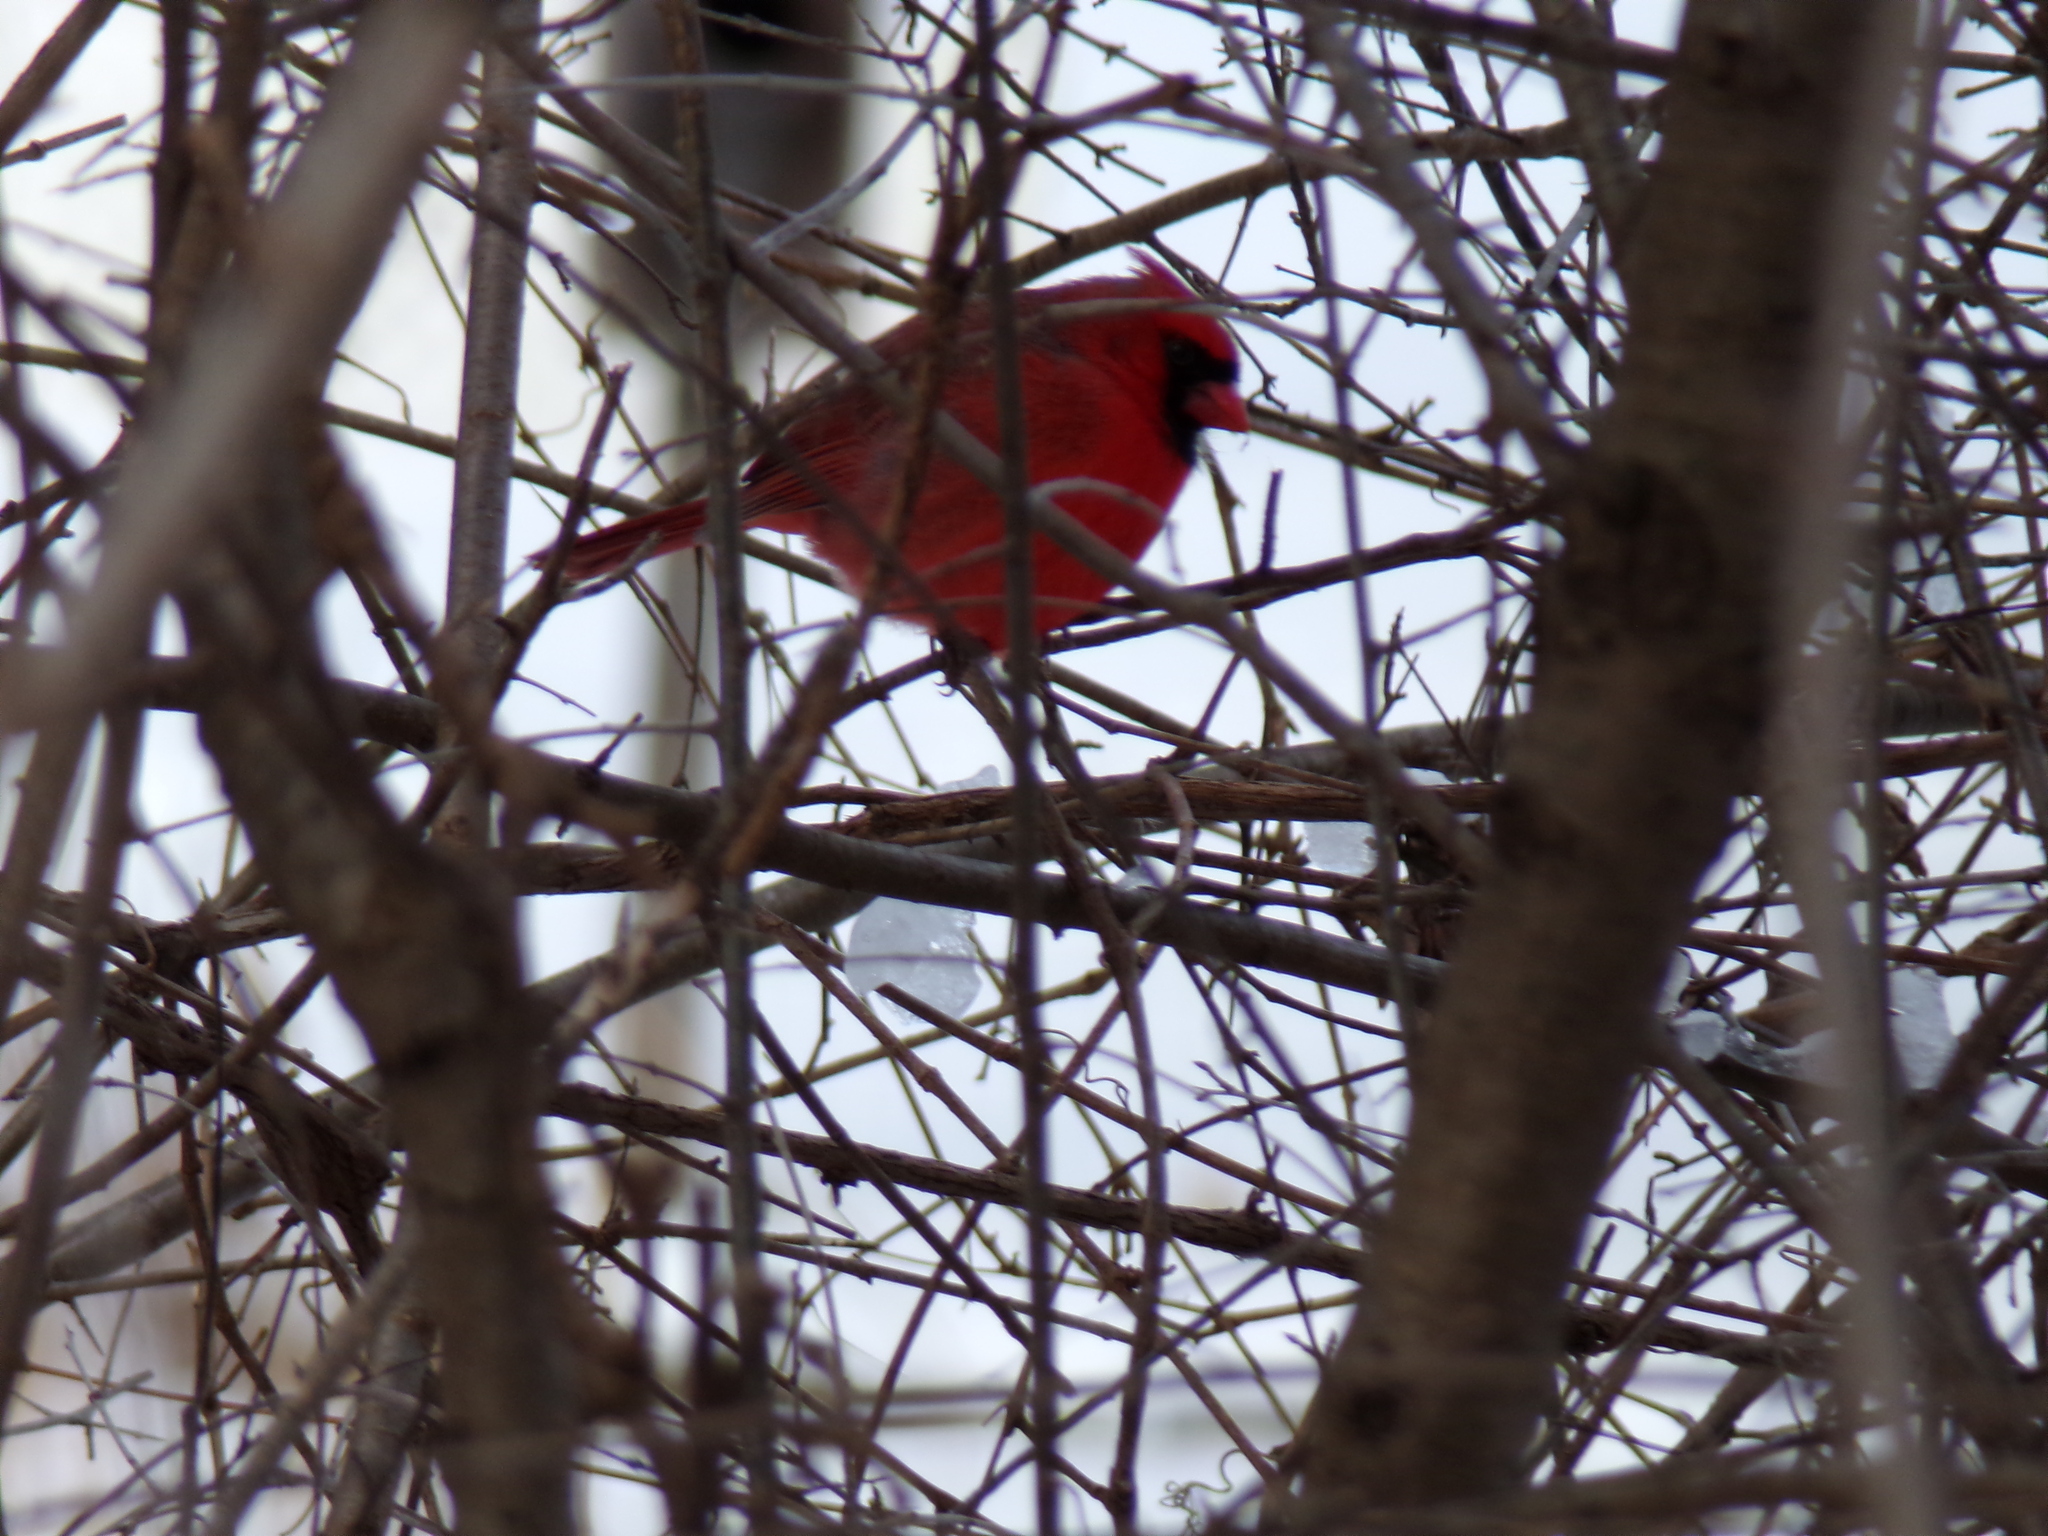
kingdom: Animalia
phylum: Chordata
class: Aves
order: Passeriformes
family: Cardinalidae
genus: Cardinalis
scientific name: Cardinalis cardinalis
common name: Northern cardinal
